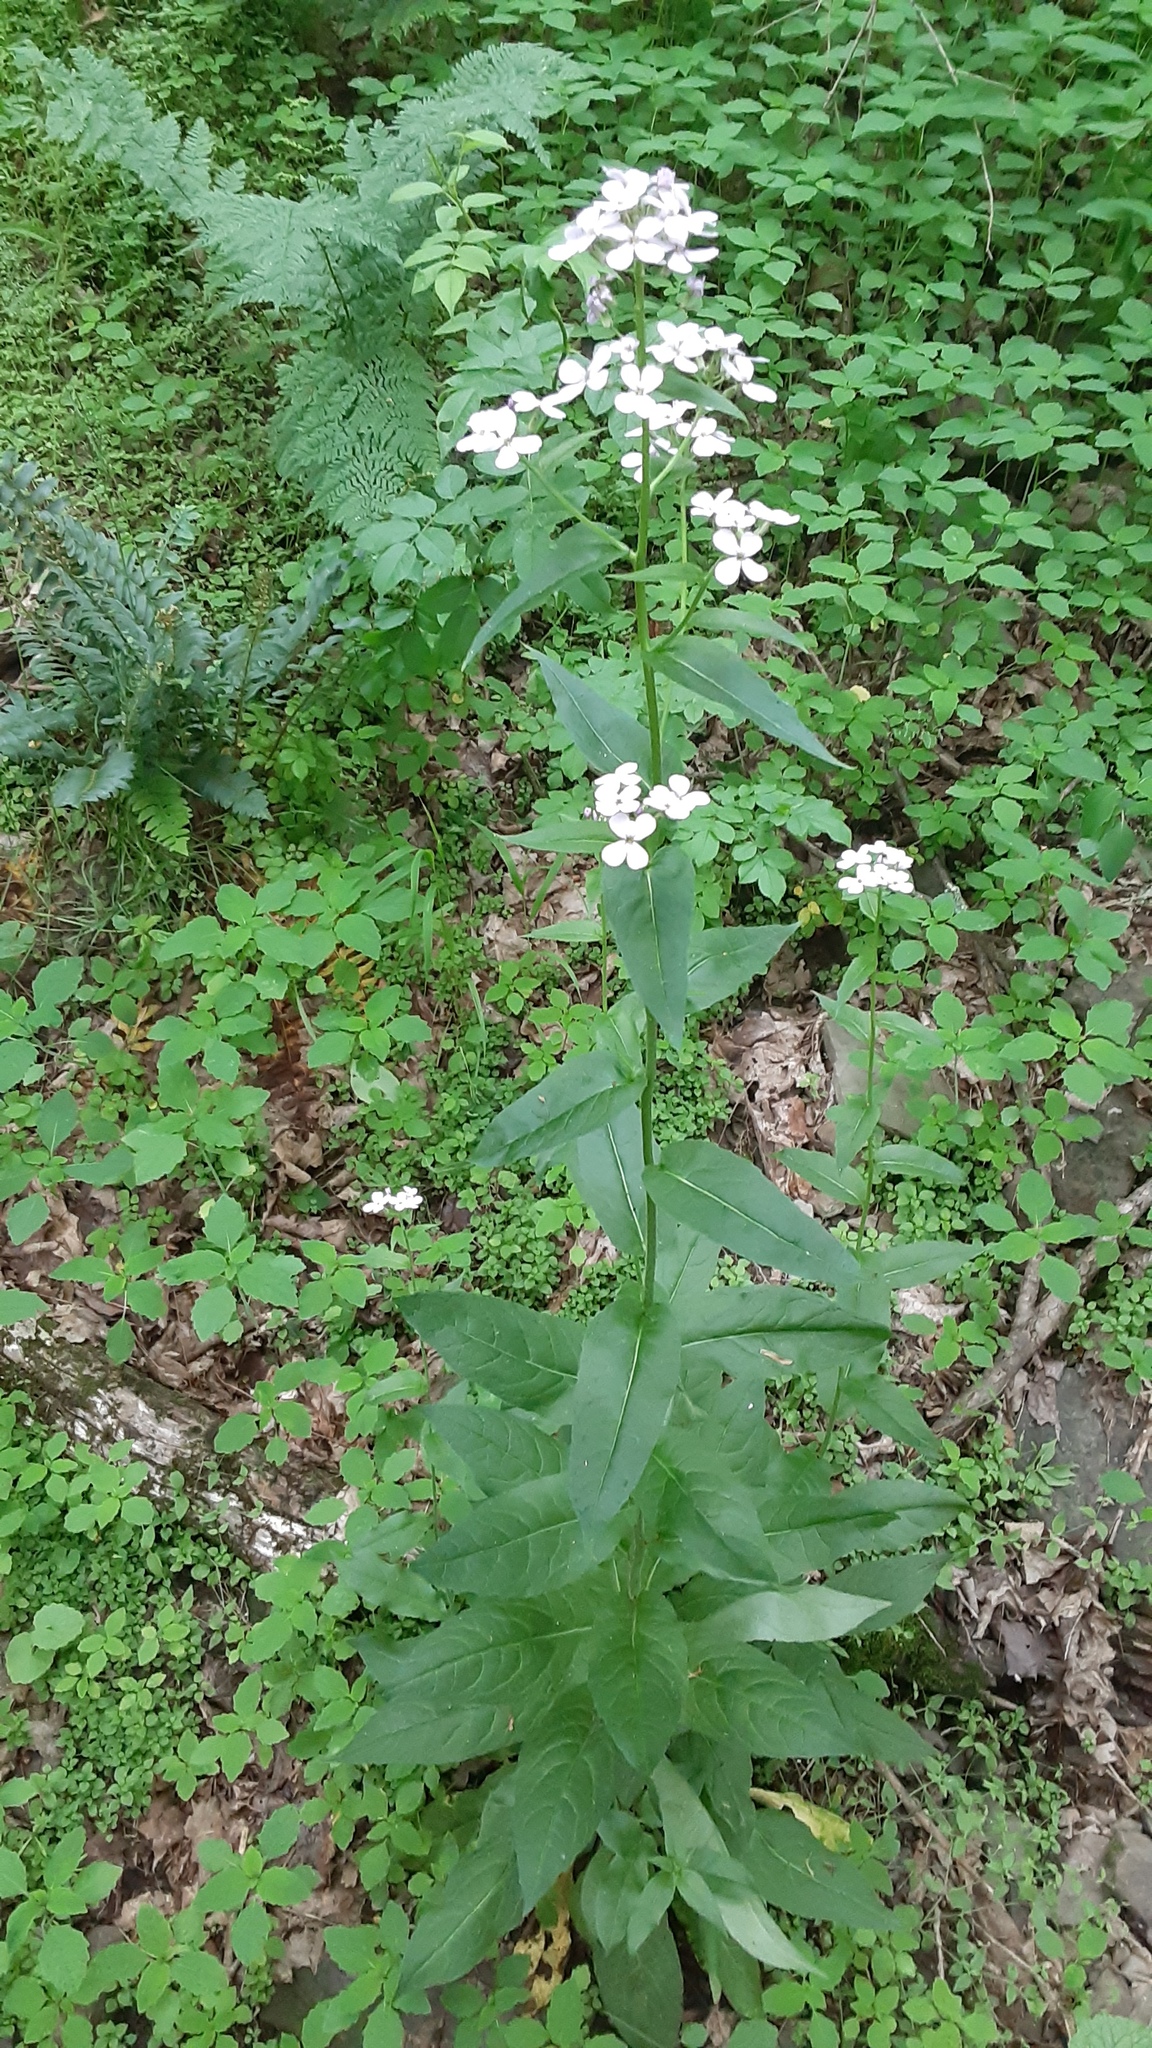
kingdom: Plantae
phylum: Tracheophyta
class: Magnoliopsida
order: Brassicales
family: Brassicaceae
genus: Hesperis
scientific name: Hesperis matronalis
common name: Dame's-violet
